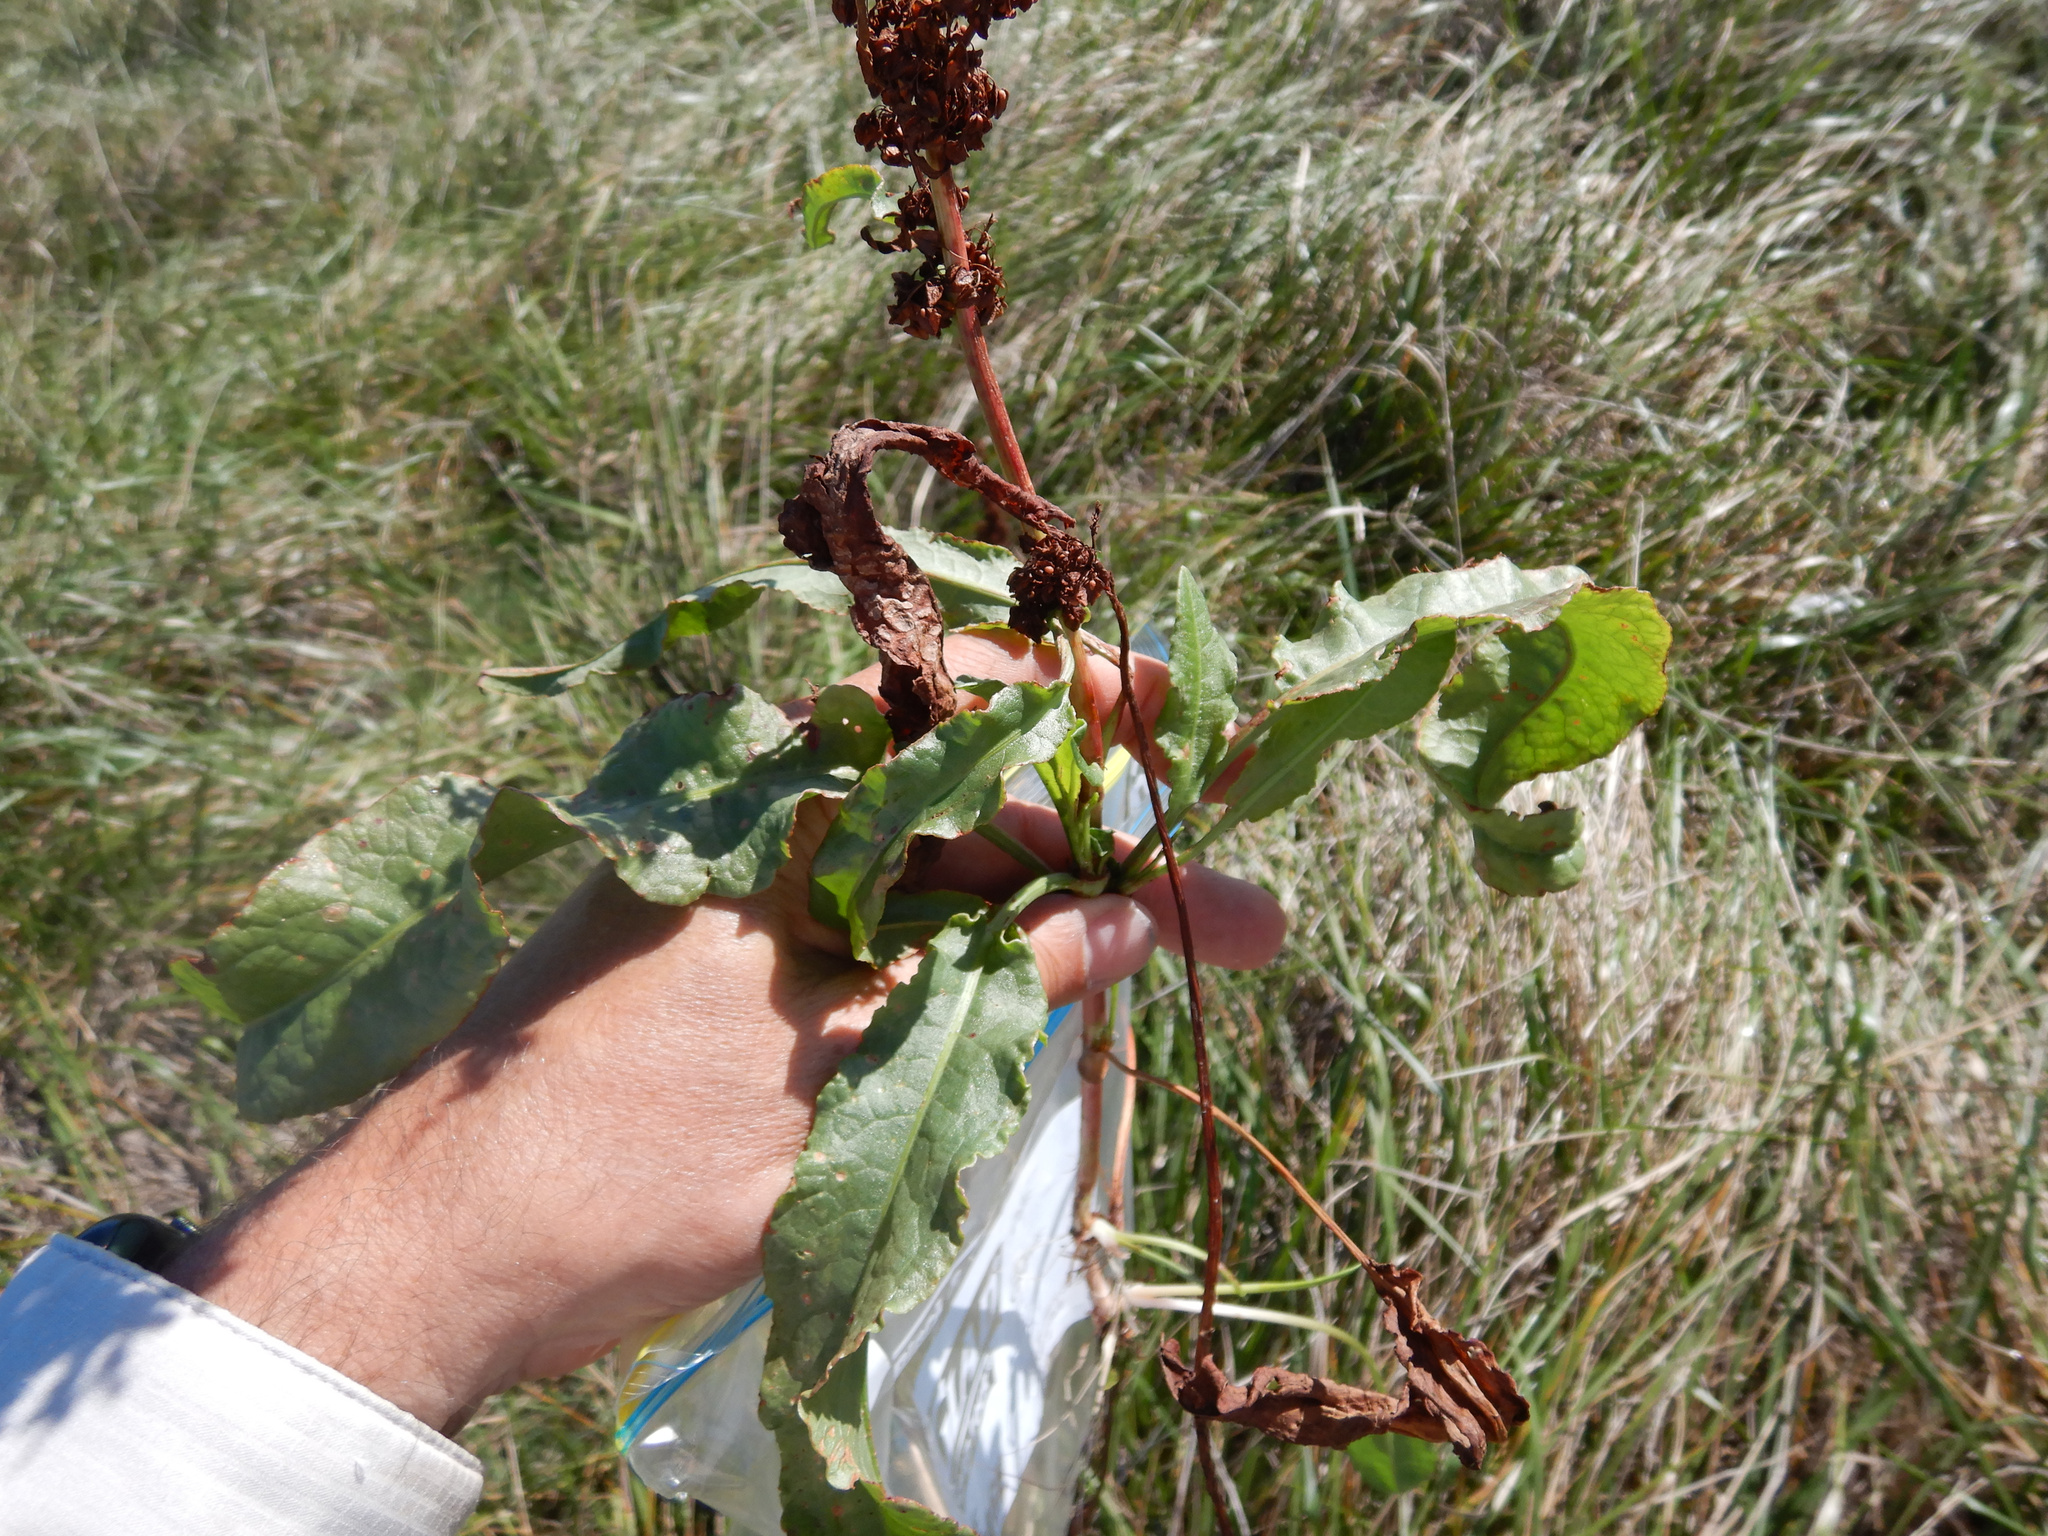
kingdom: Plantae
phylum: Tracheophyta
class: Magnoliopsida
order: Caryophyllales
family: Polygonaceae
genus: Rumex
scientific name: Rumex crispus
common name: Curled dock
